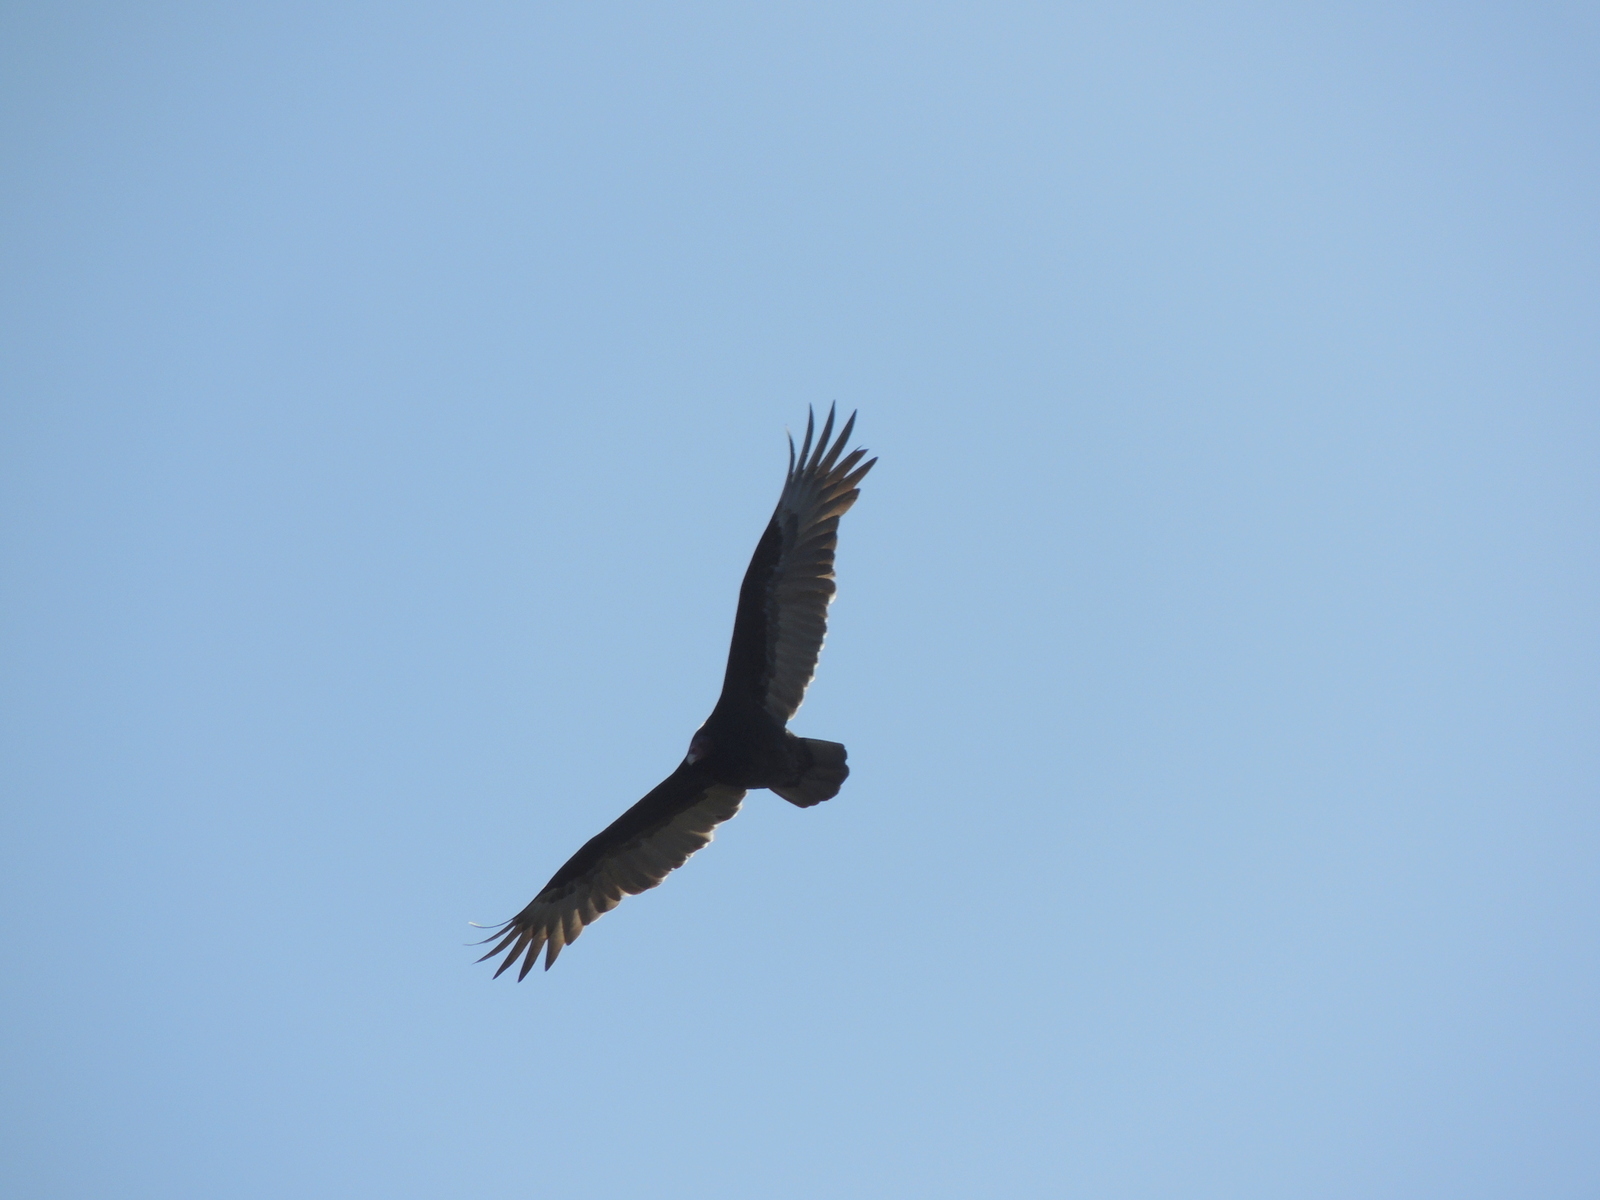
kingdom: Animalia
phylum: Chordata
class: Aves
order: Accipitriformes
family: Cathartidae
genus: Cathartes
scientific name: Cathartes aura
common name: Turkey vulture
